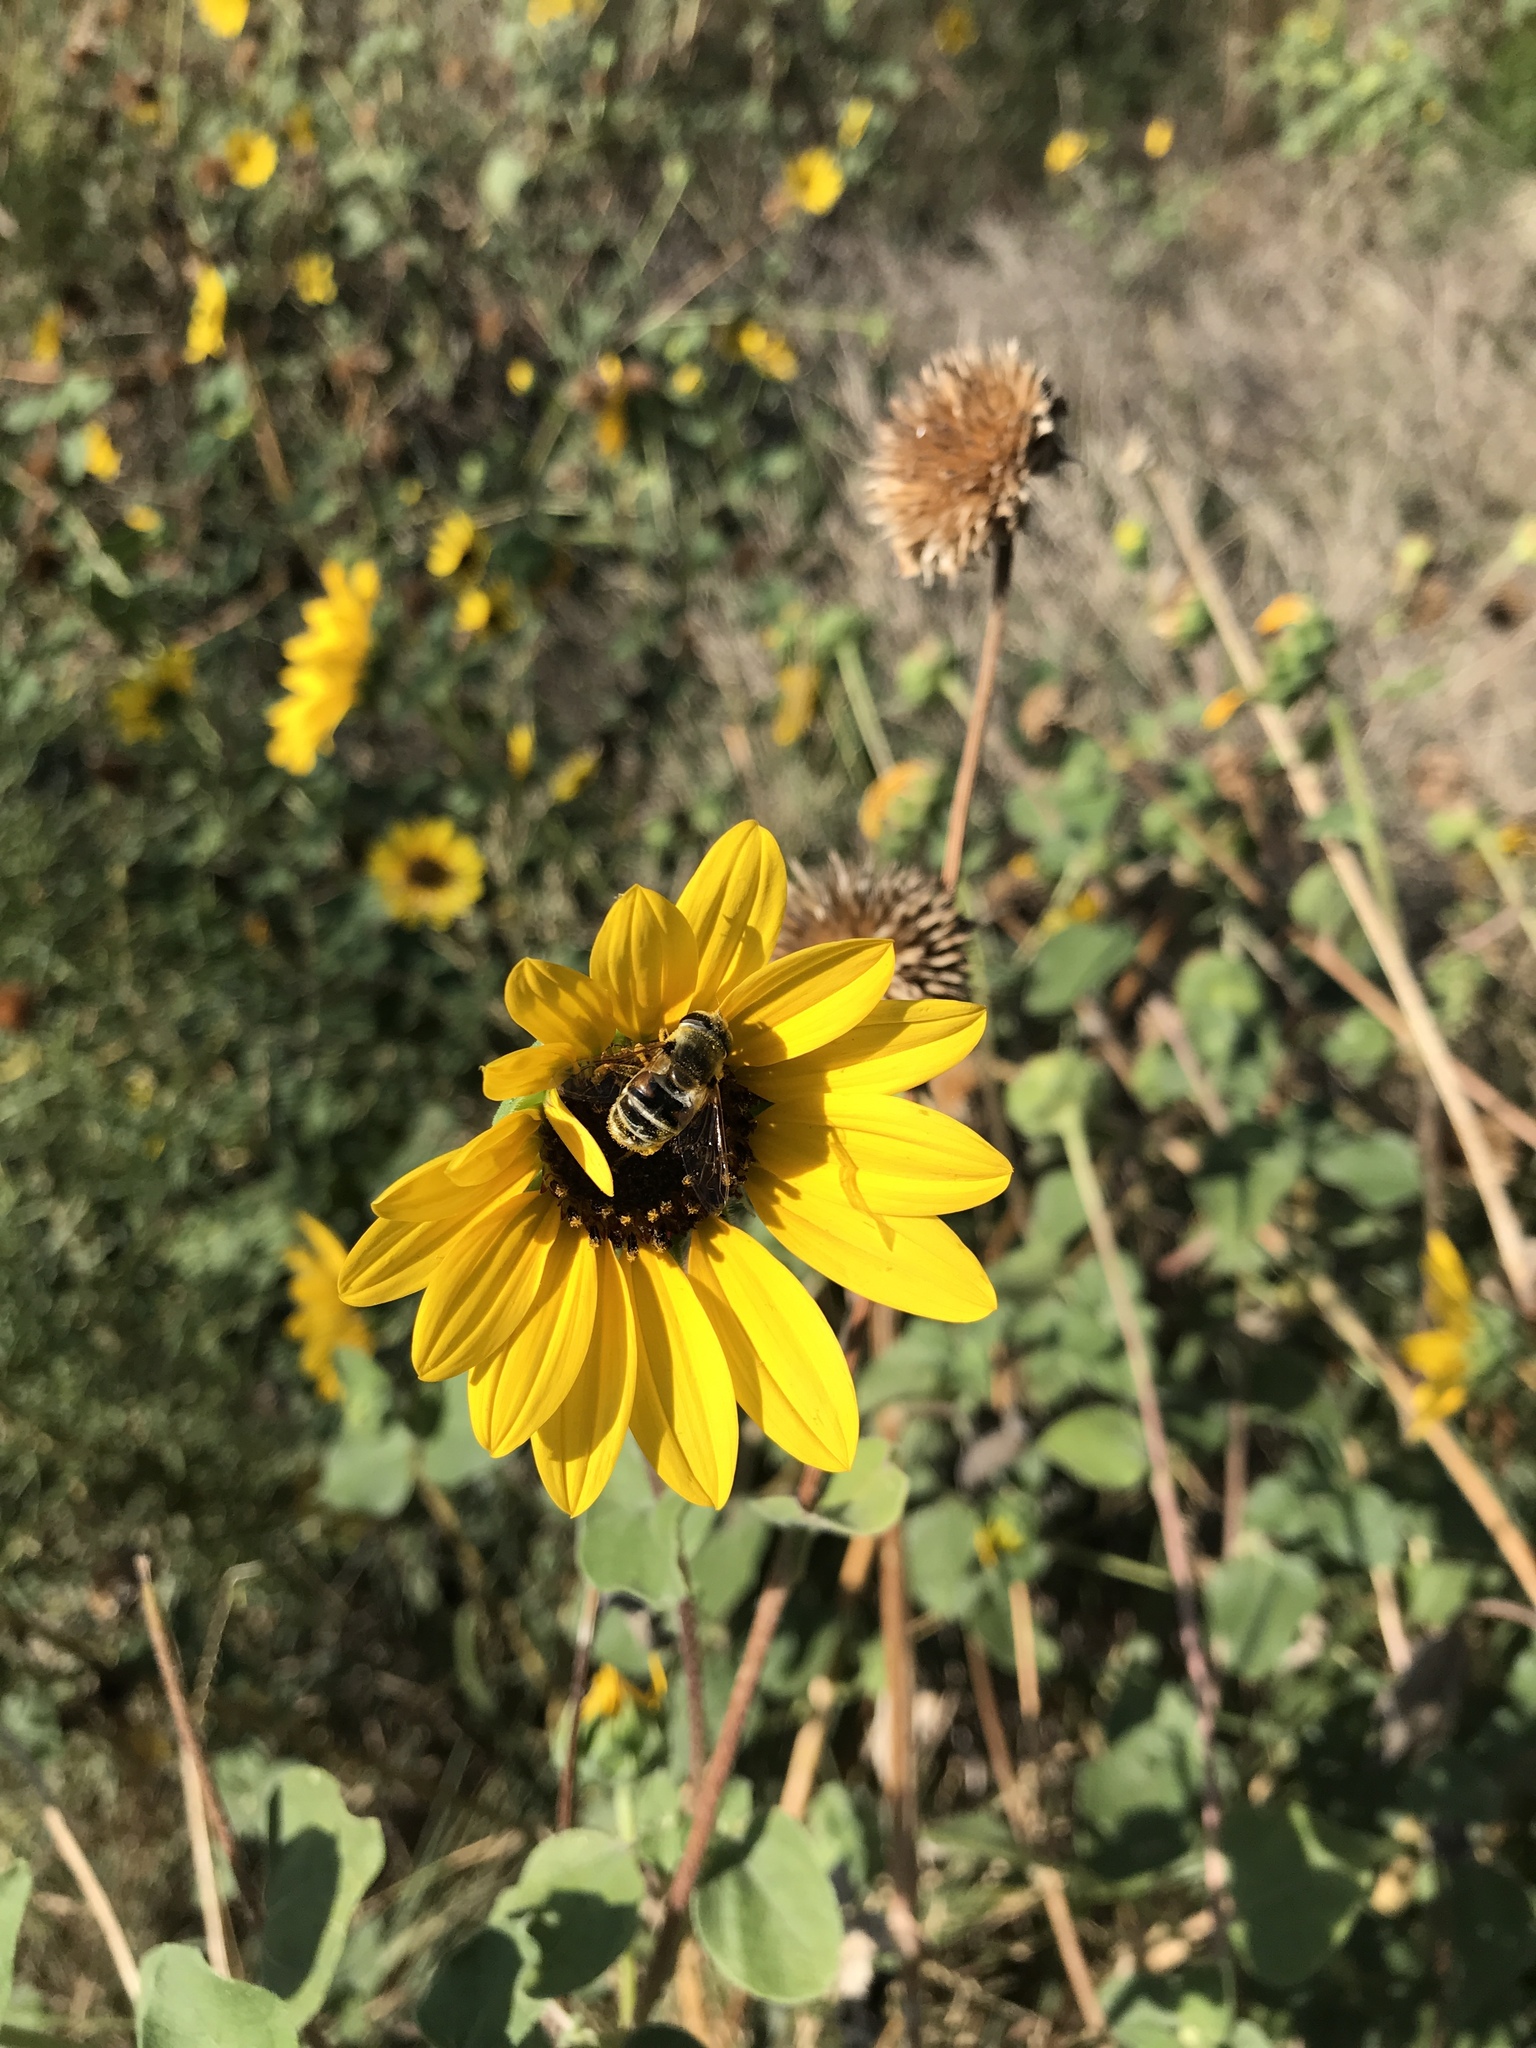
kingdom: Animalia
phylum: Arthropoda
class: Insecta
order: Diptera
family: Syrphidae
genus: Eristalis
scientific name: Eristalis stipator
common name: Yellow-shouldered drone fly
